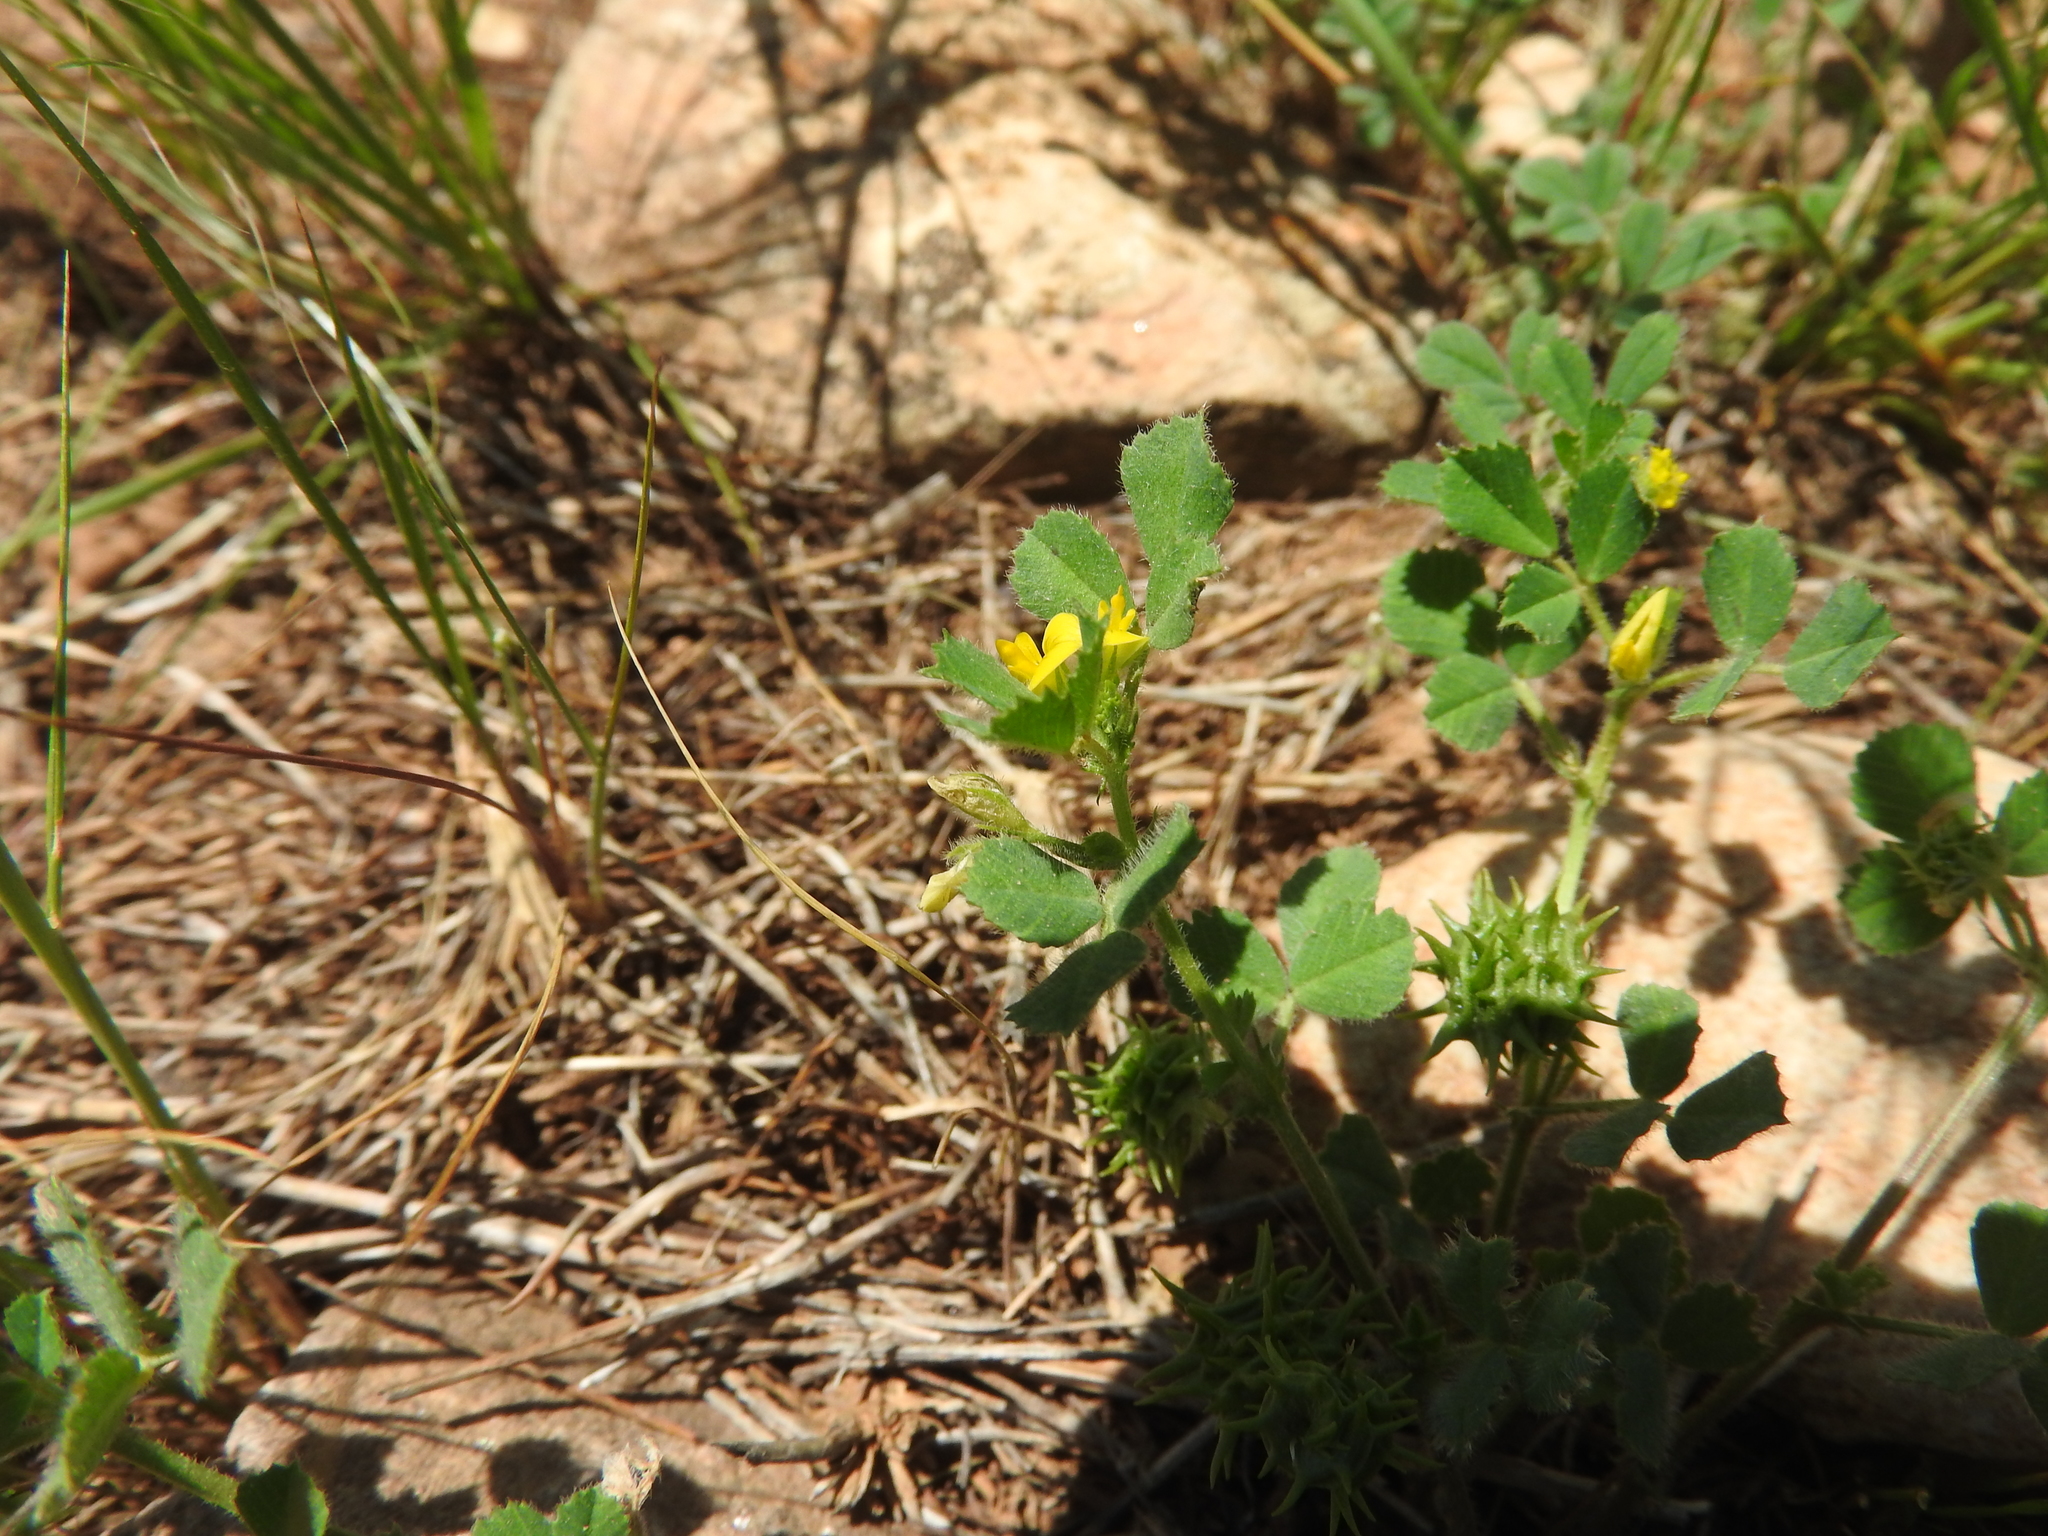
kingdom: Plantae
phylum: Tracheophyta
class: Magnoliopsida
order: Fabales
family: Fabaceae
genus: Medicago
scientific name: Medicago truncatula
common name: Strong-spined medick
